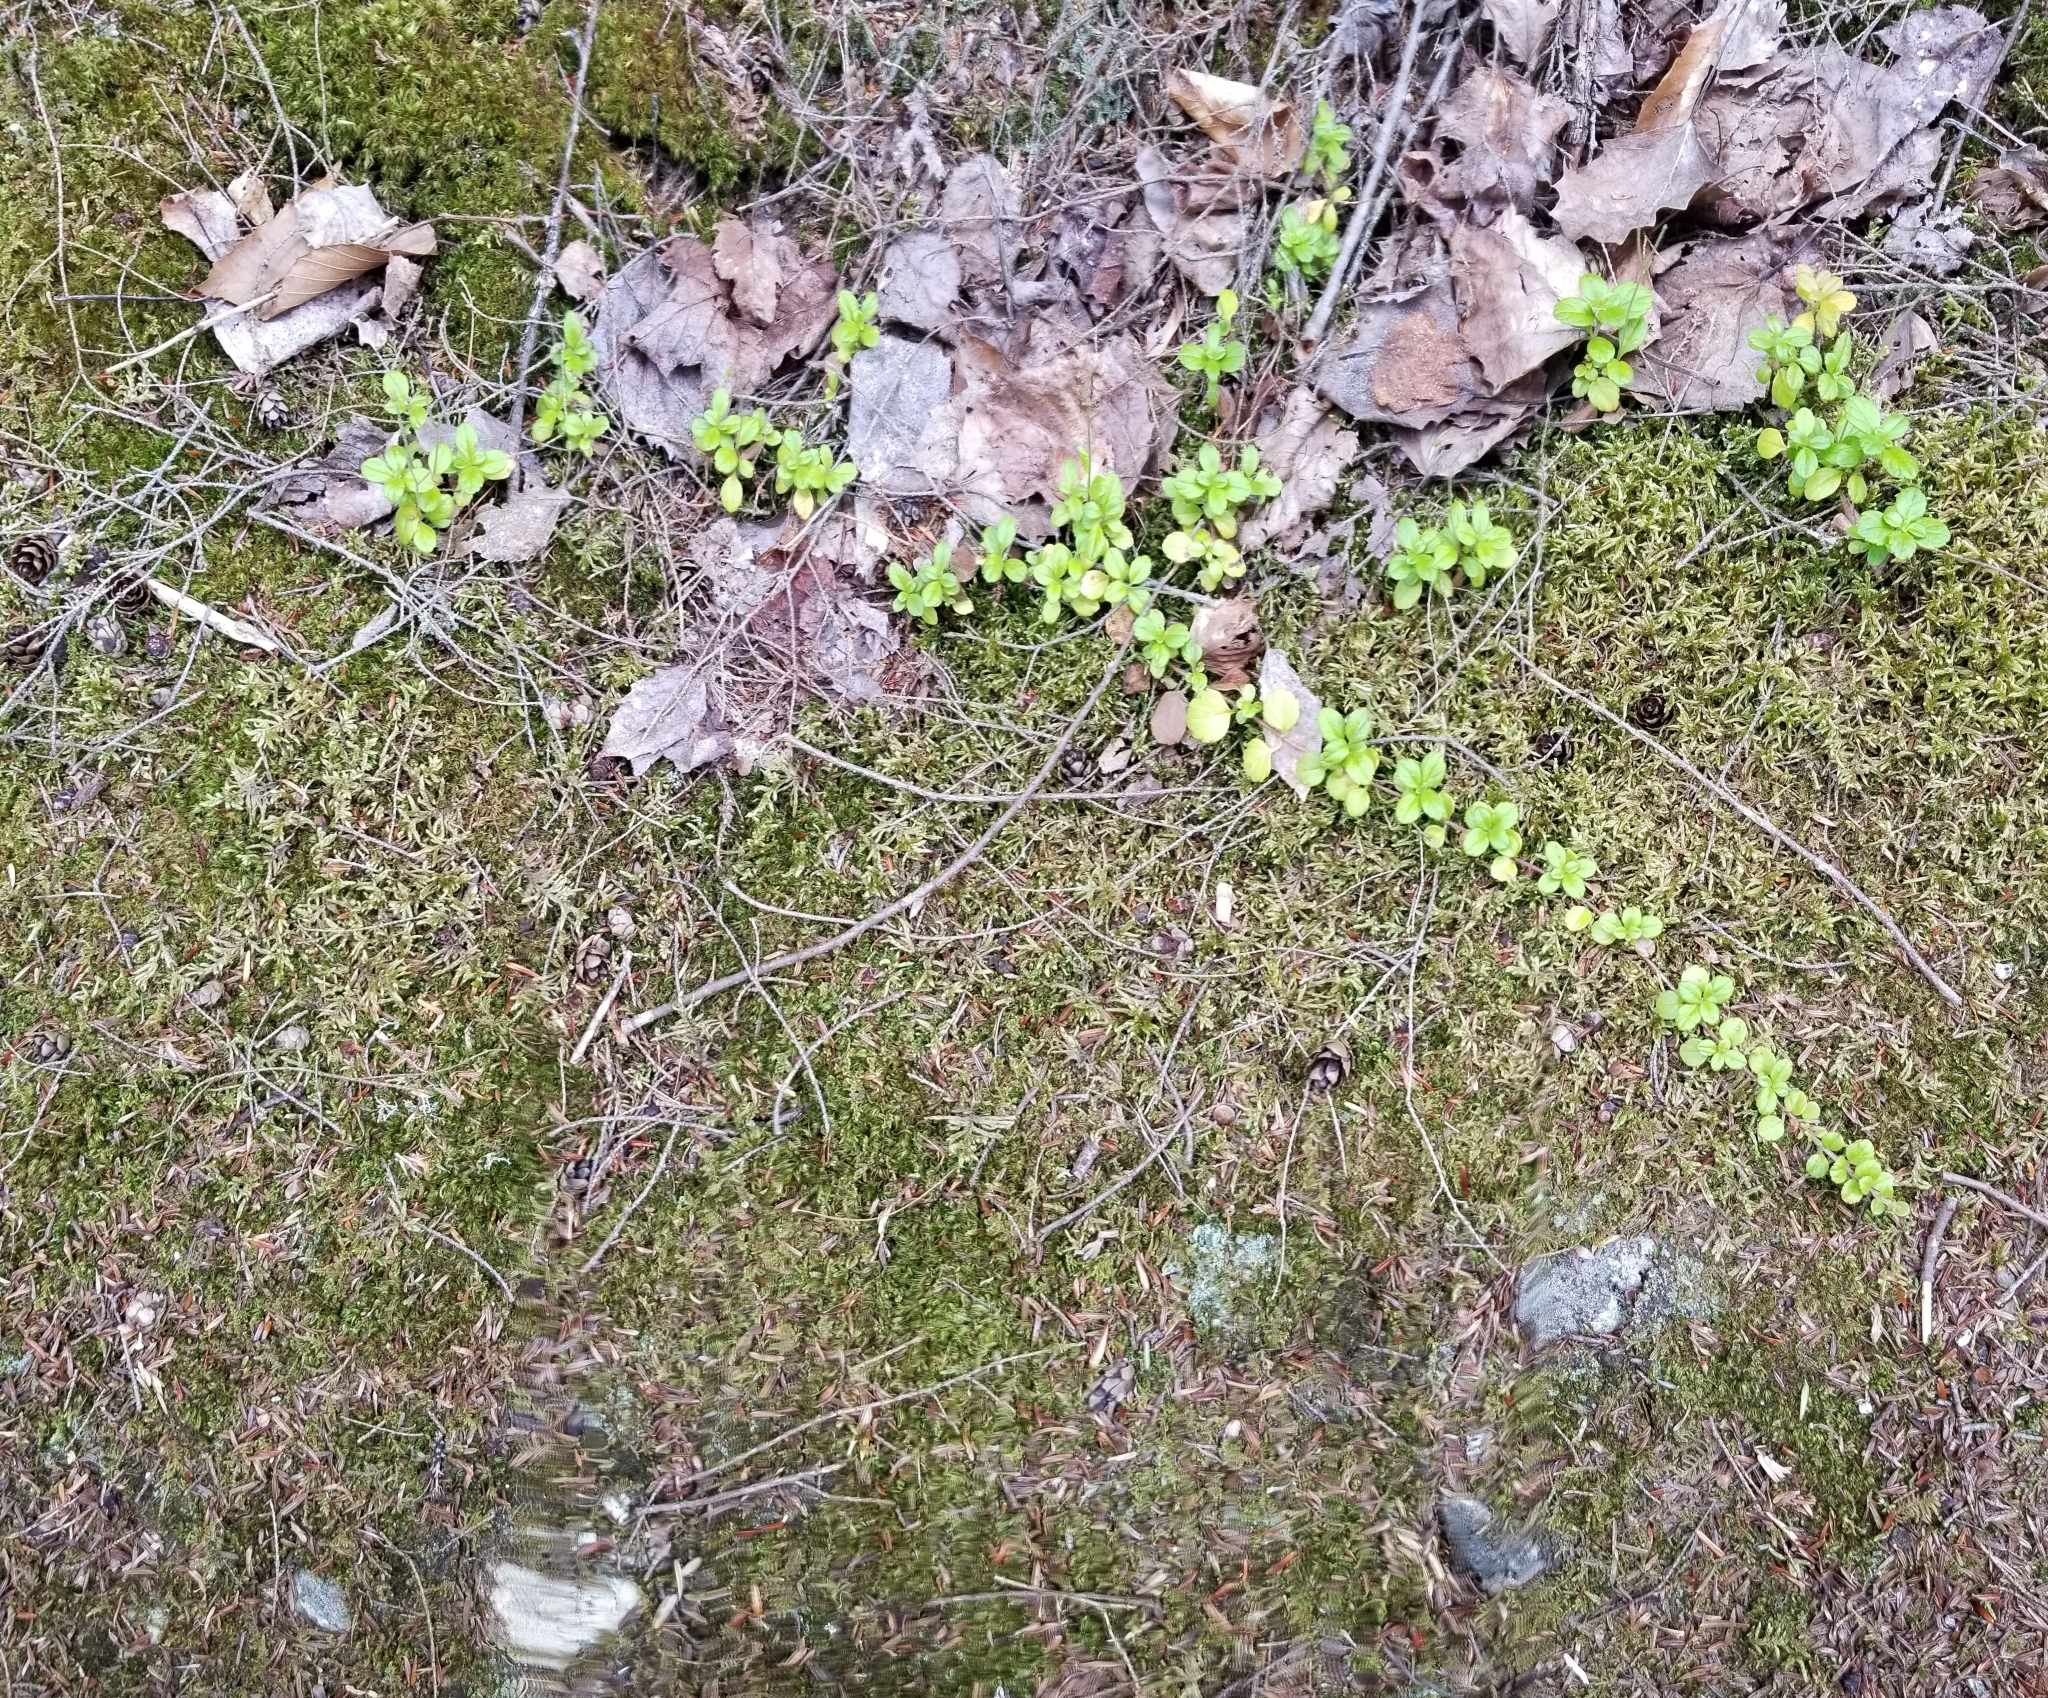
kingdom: Plantae
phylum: Tracheophyta
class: Magnoliopsida
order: Dipsacales
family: Caprifoliaceae
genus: Linnaea
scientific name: Linnaea borealis
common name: Twinflower
